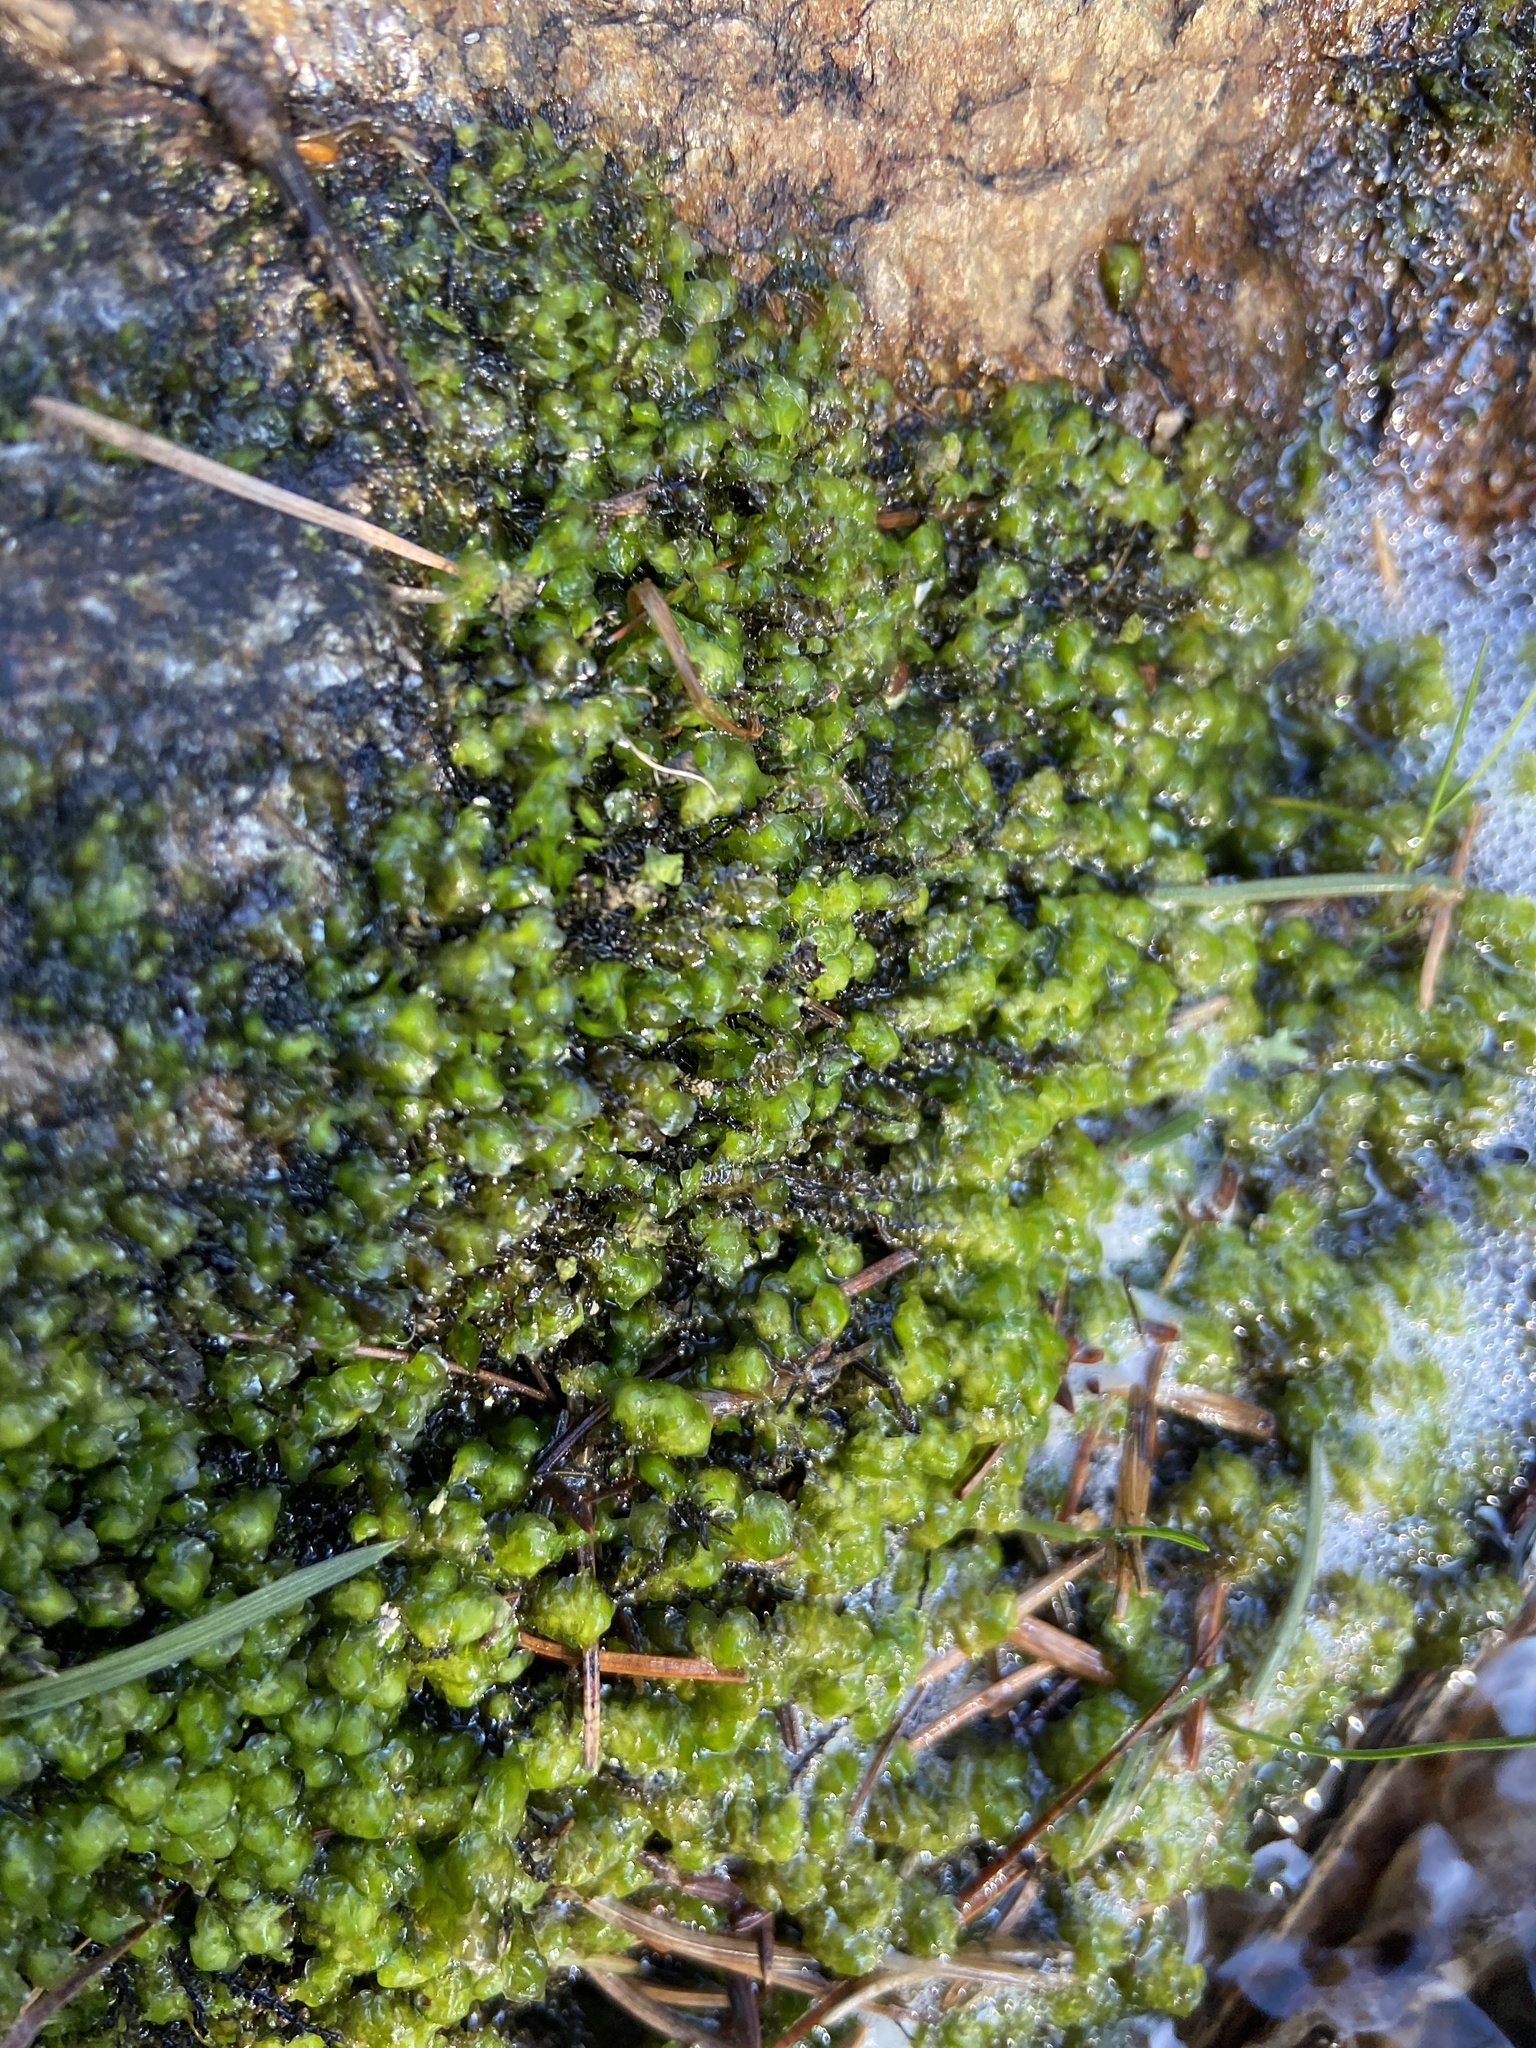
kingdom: Plantae
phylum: Marchantiophyta
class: Jungermanniopsida
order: Jungermanniales
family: Scapaniaceae
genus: Scapania
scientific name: Scapania undulata
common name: Water earwort
